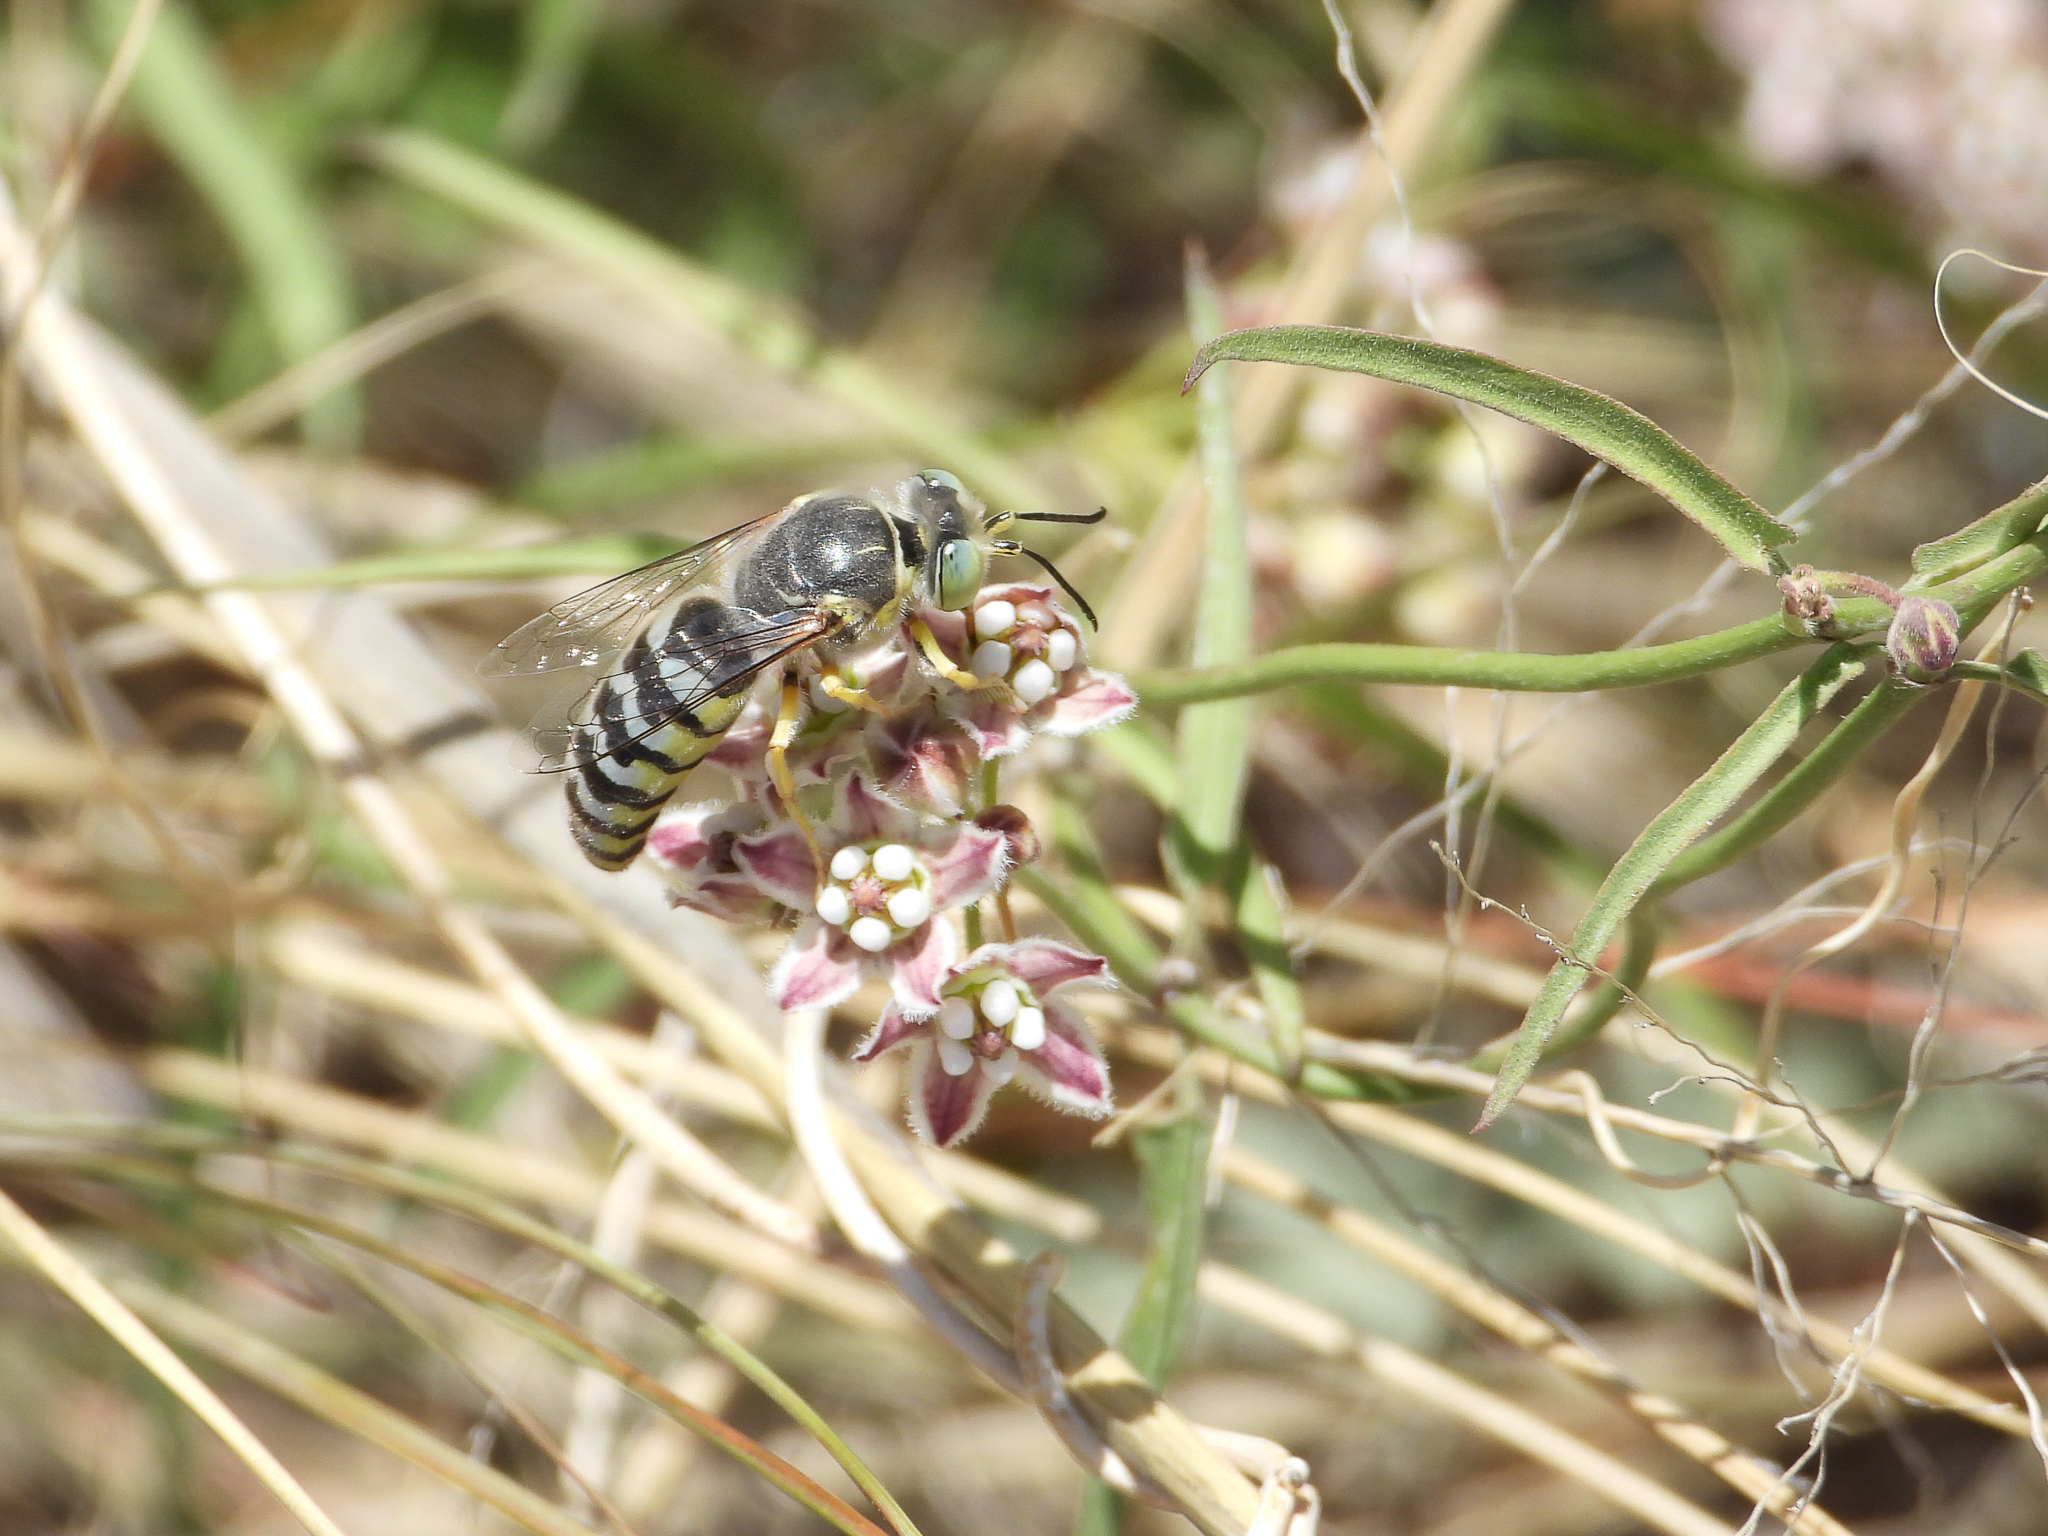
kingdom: Animalia
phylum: Arthropoda
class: Insecta
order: Hymenoptera
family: Crabronidae
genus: Bembix
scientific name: Bembix americana
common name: American sand wasp
